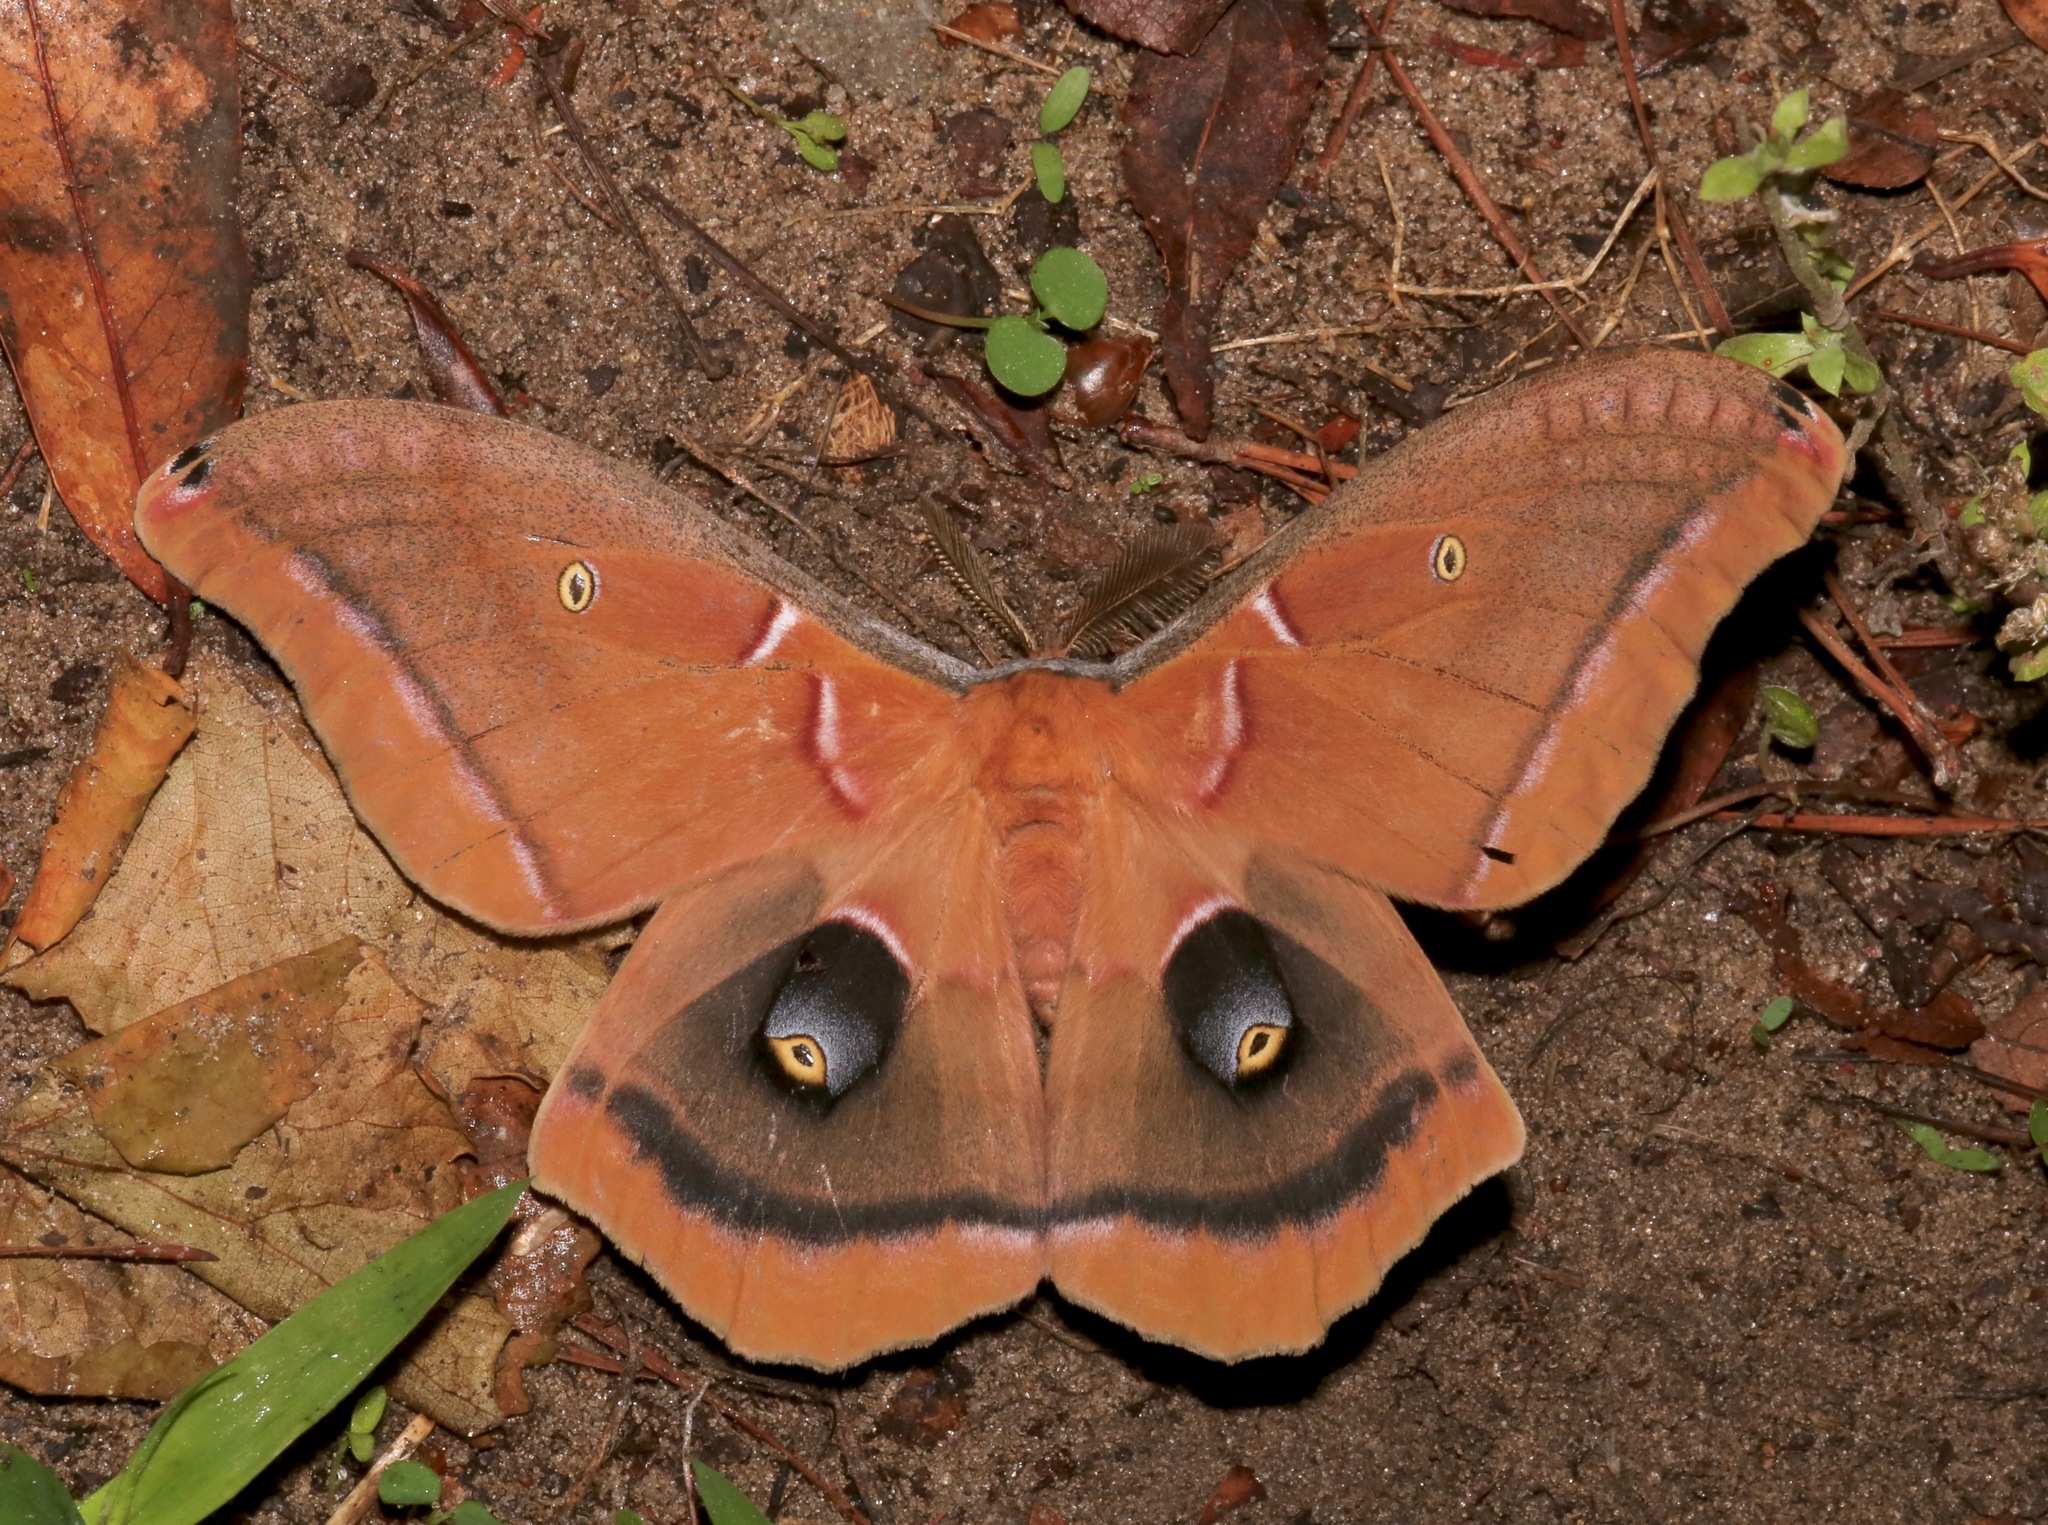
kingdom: Animalia
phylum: Arthropoda
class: Insecta
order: Lepidoptera
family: Saturniidae
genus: Antheraea
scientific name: Antheraea polyphemus
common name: Polyphemus moth
